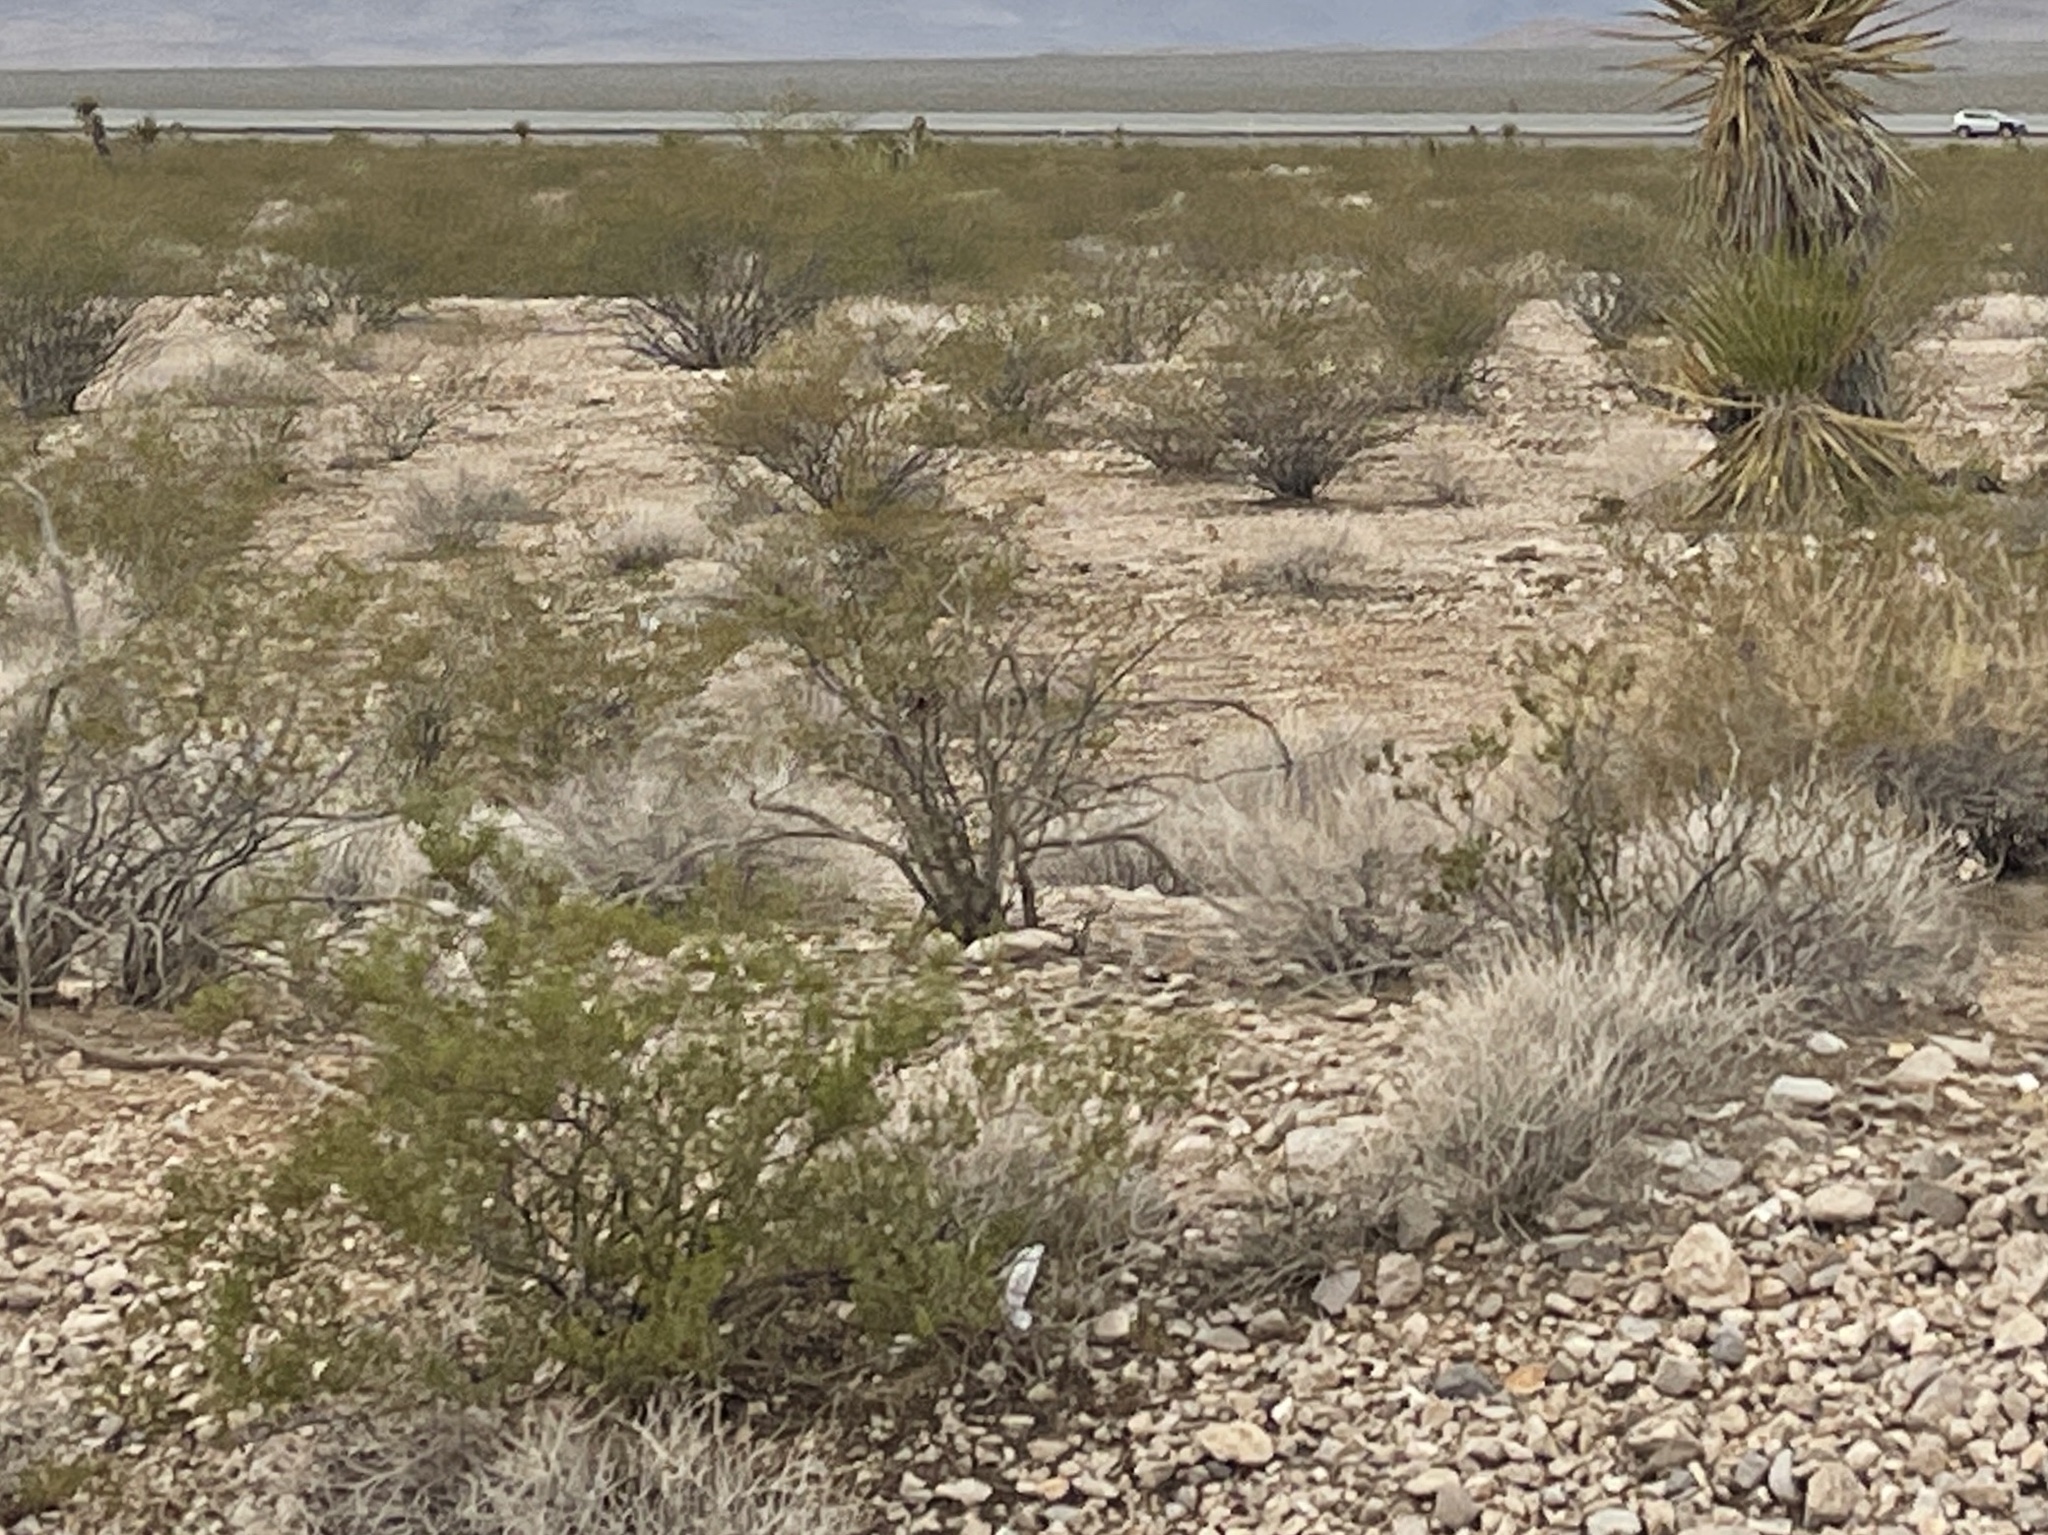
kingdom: Plantae
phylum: Tracheophyta
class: Magnoliopsida
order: Zygophyllales
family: Zygophyllaceae
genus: Larrea
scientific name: Larrea tridentata
